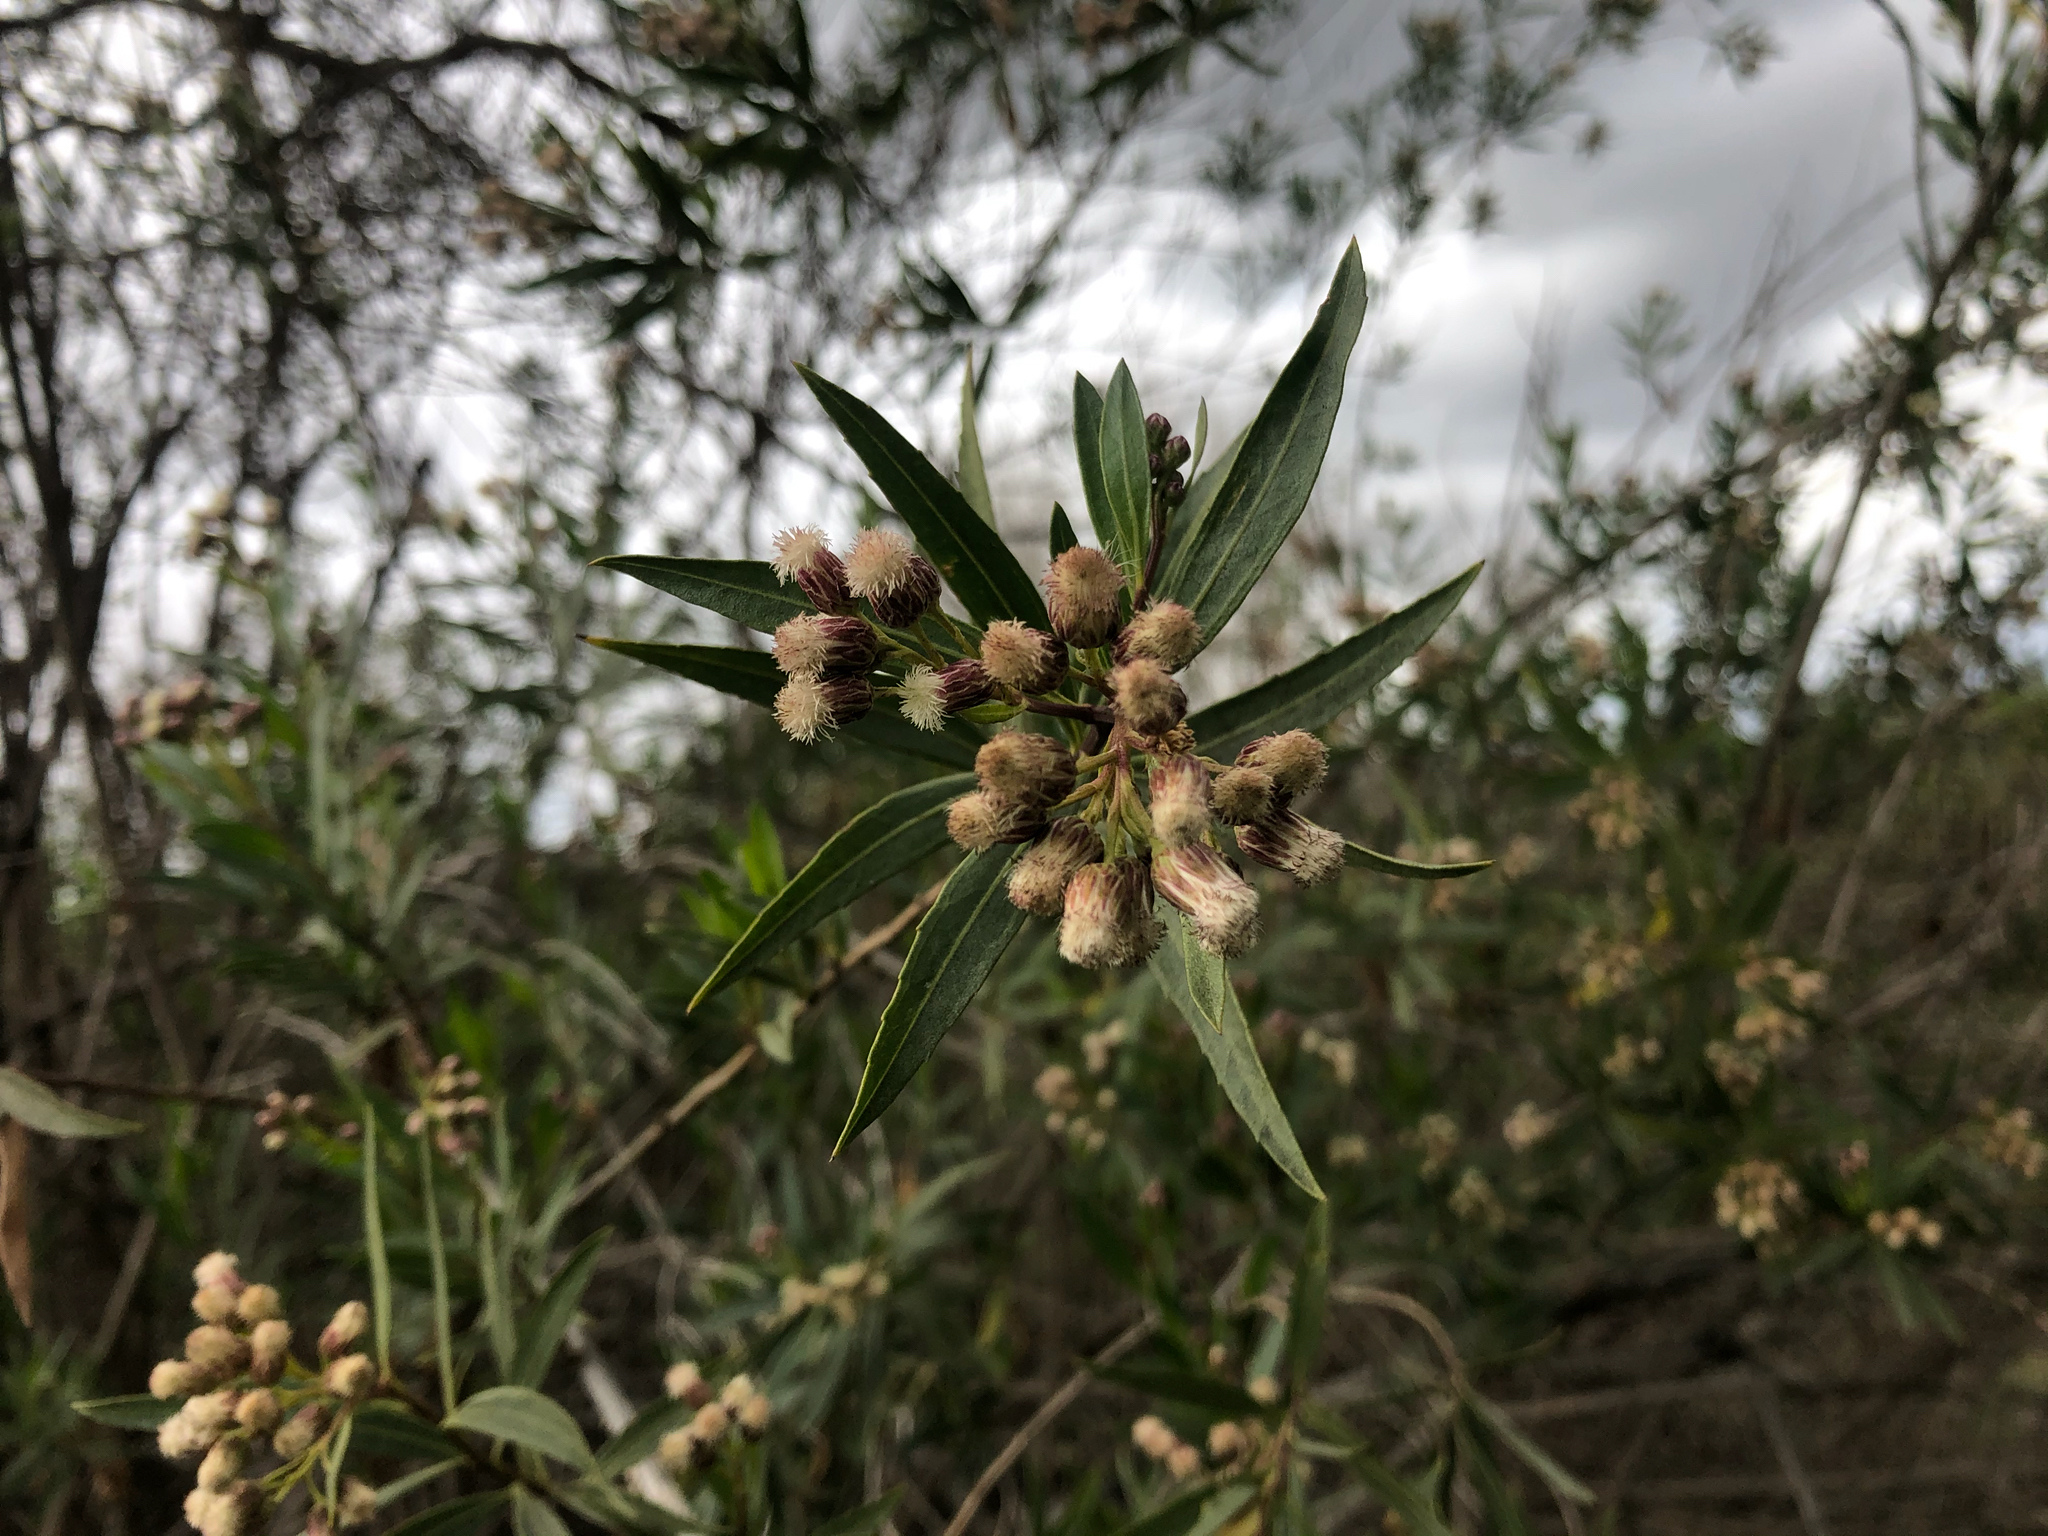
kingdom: Plantae
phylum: Tracheophyta
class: Magnoliopsida
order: Asterales
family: Asteraceae
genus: Baccharis
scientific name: Baccharis salicifolia
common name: Sticky baccharis
